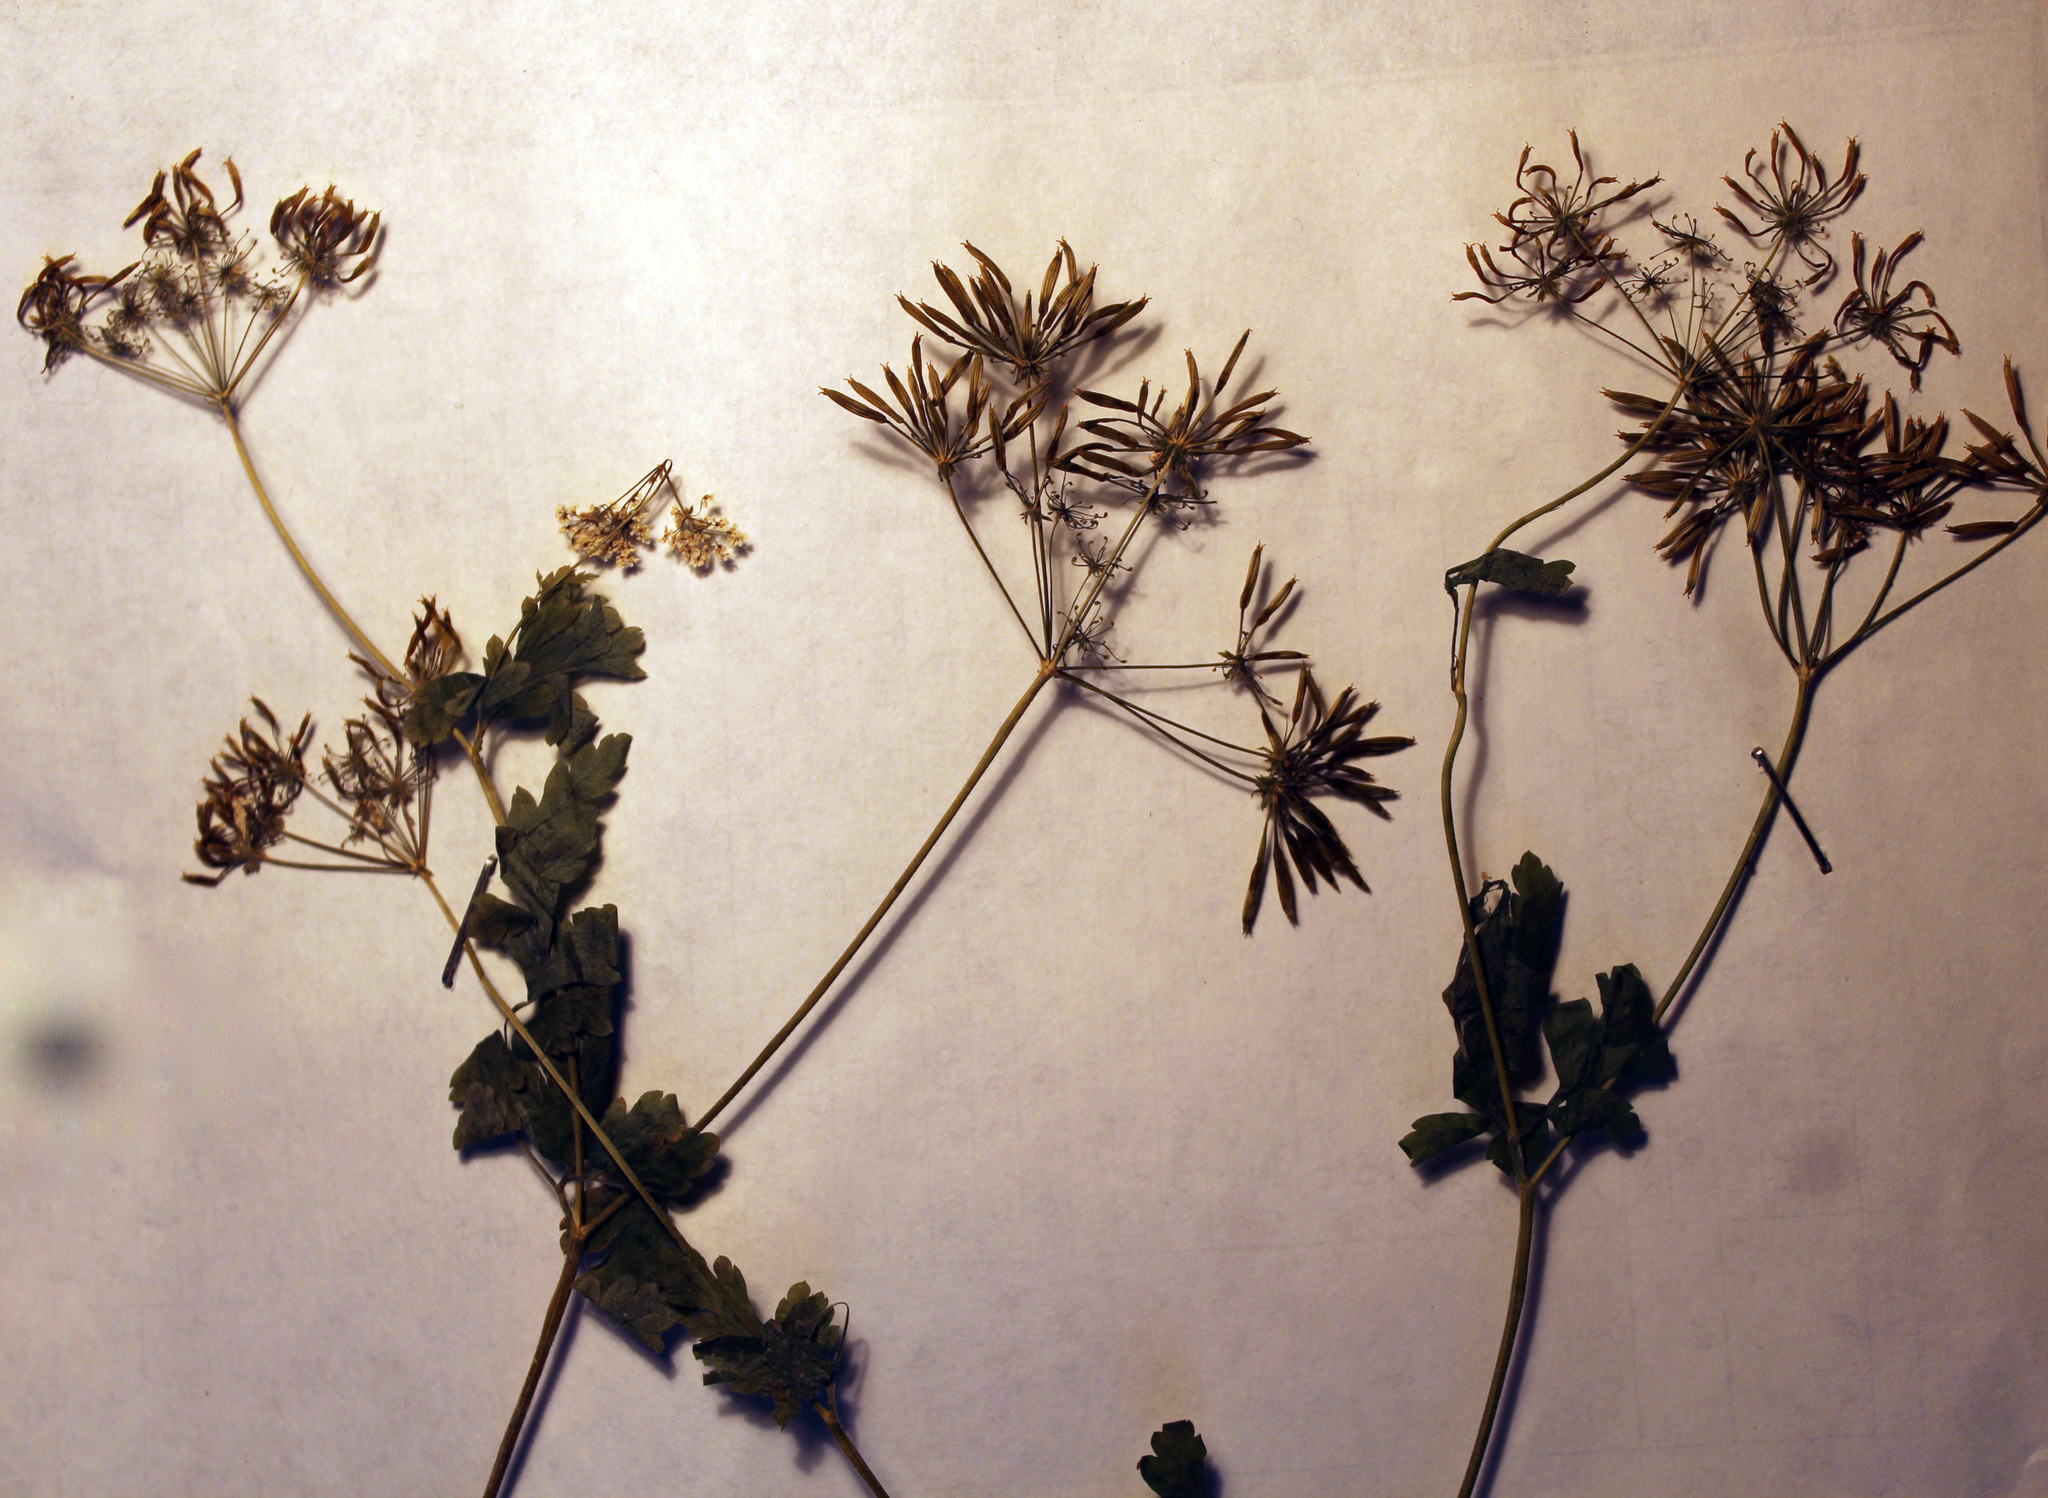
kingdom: Plantae
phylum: Tracheophyta
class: Magnoliopsida
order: Apiales
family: Apiaceae
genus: Chaerophyllum
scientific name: Chaerophyllum temulum
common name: Rough chervil
